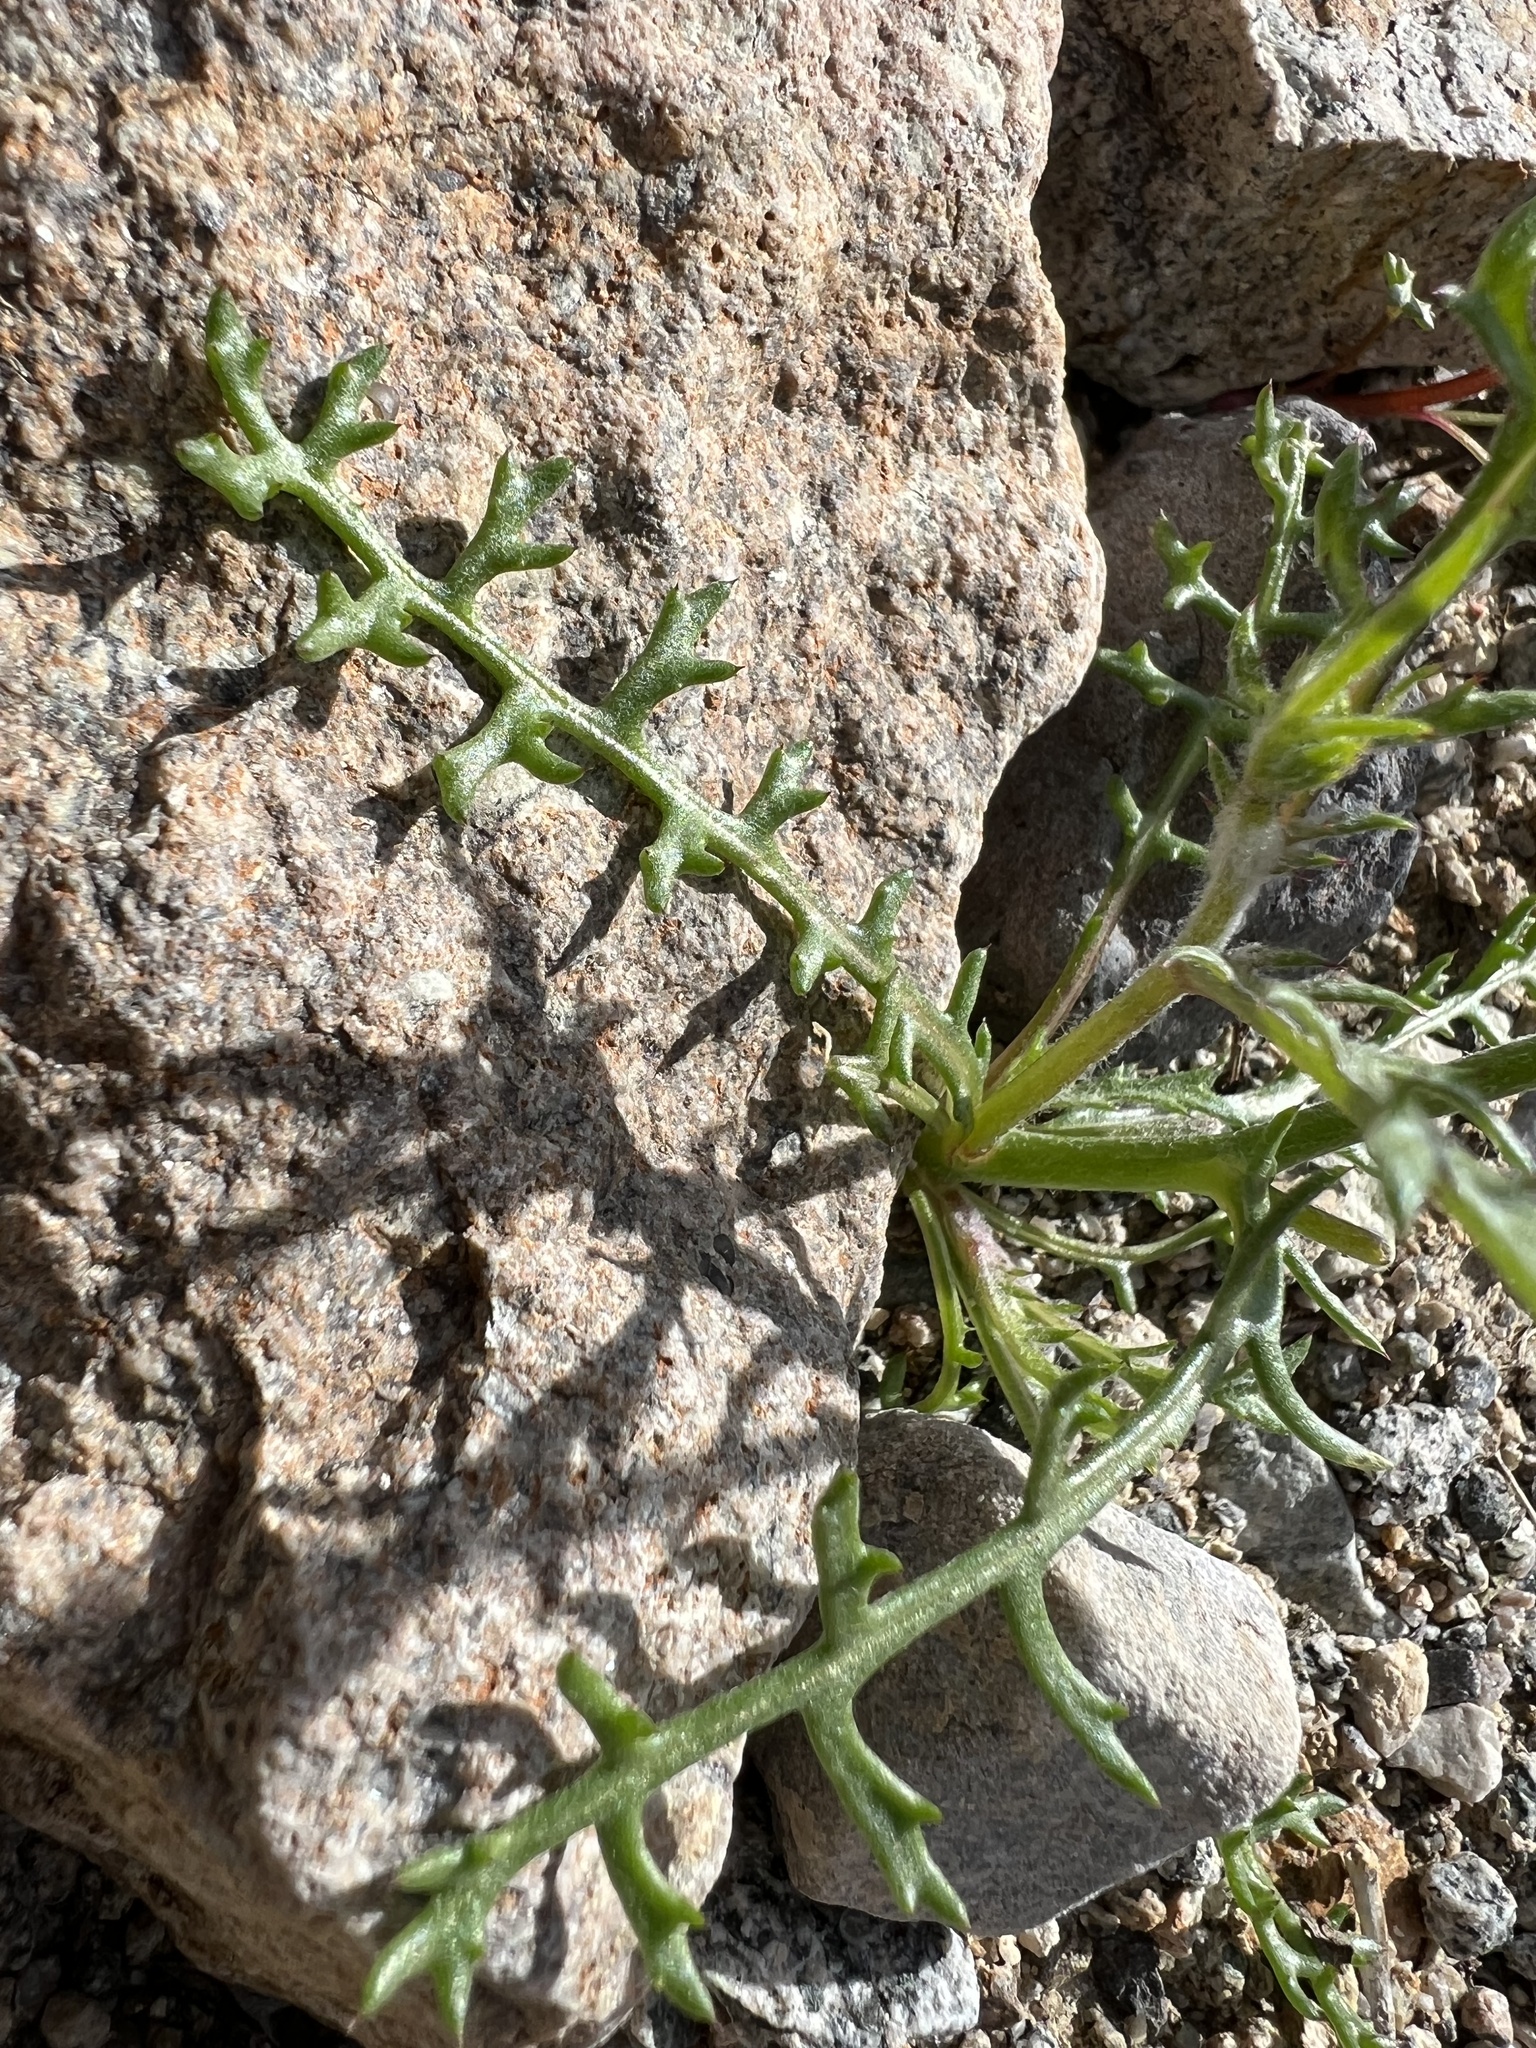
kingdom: Plantae
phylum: Tracheophyta
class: Magnoliopsida
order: Ericales
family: Polemoniaceae
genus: Gilia
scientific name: Gilia cana
